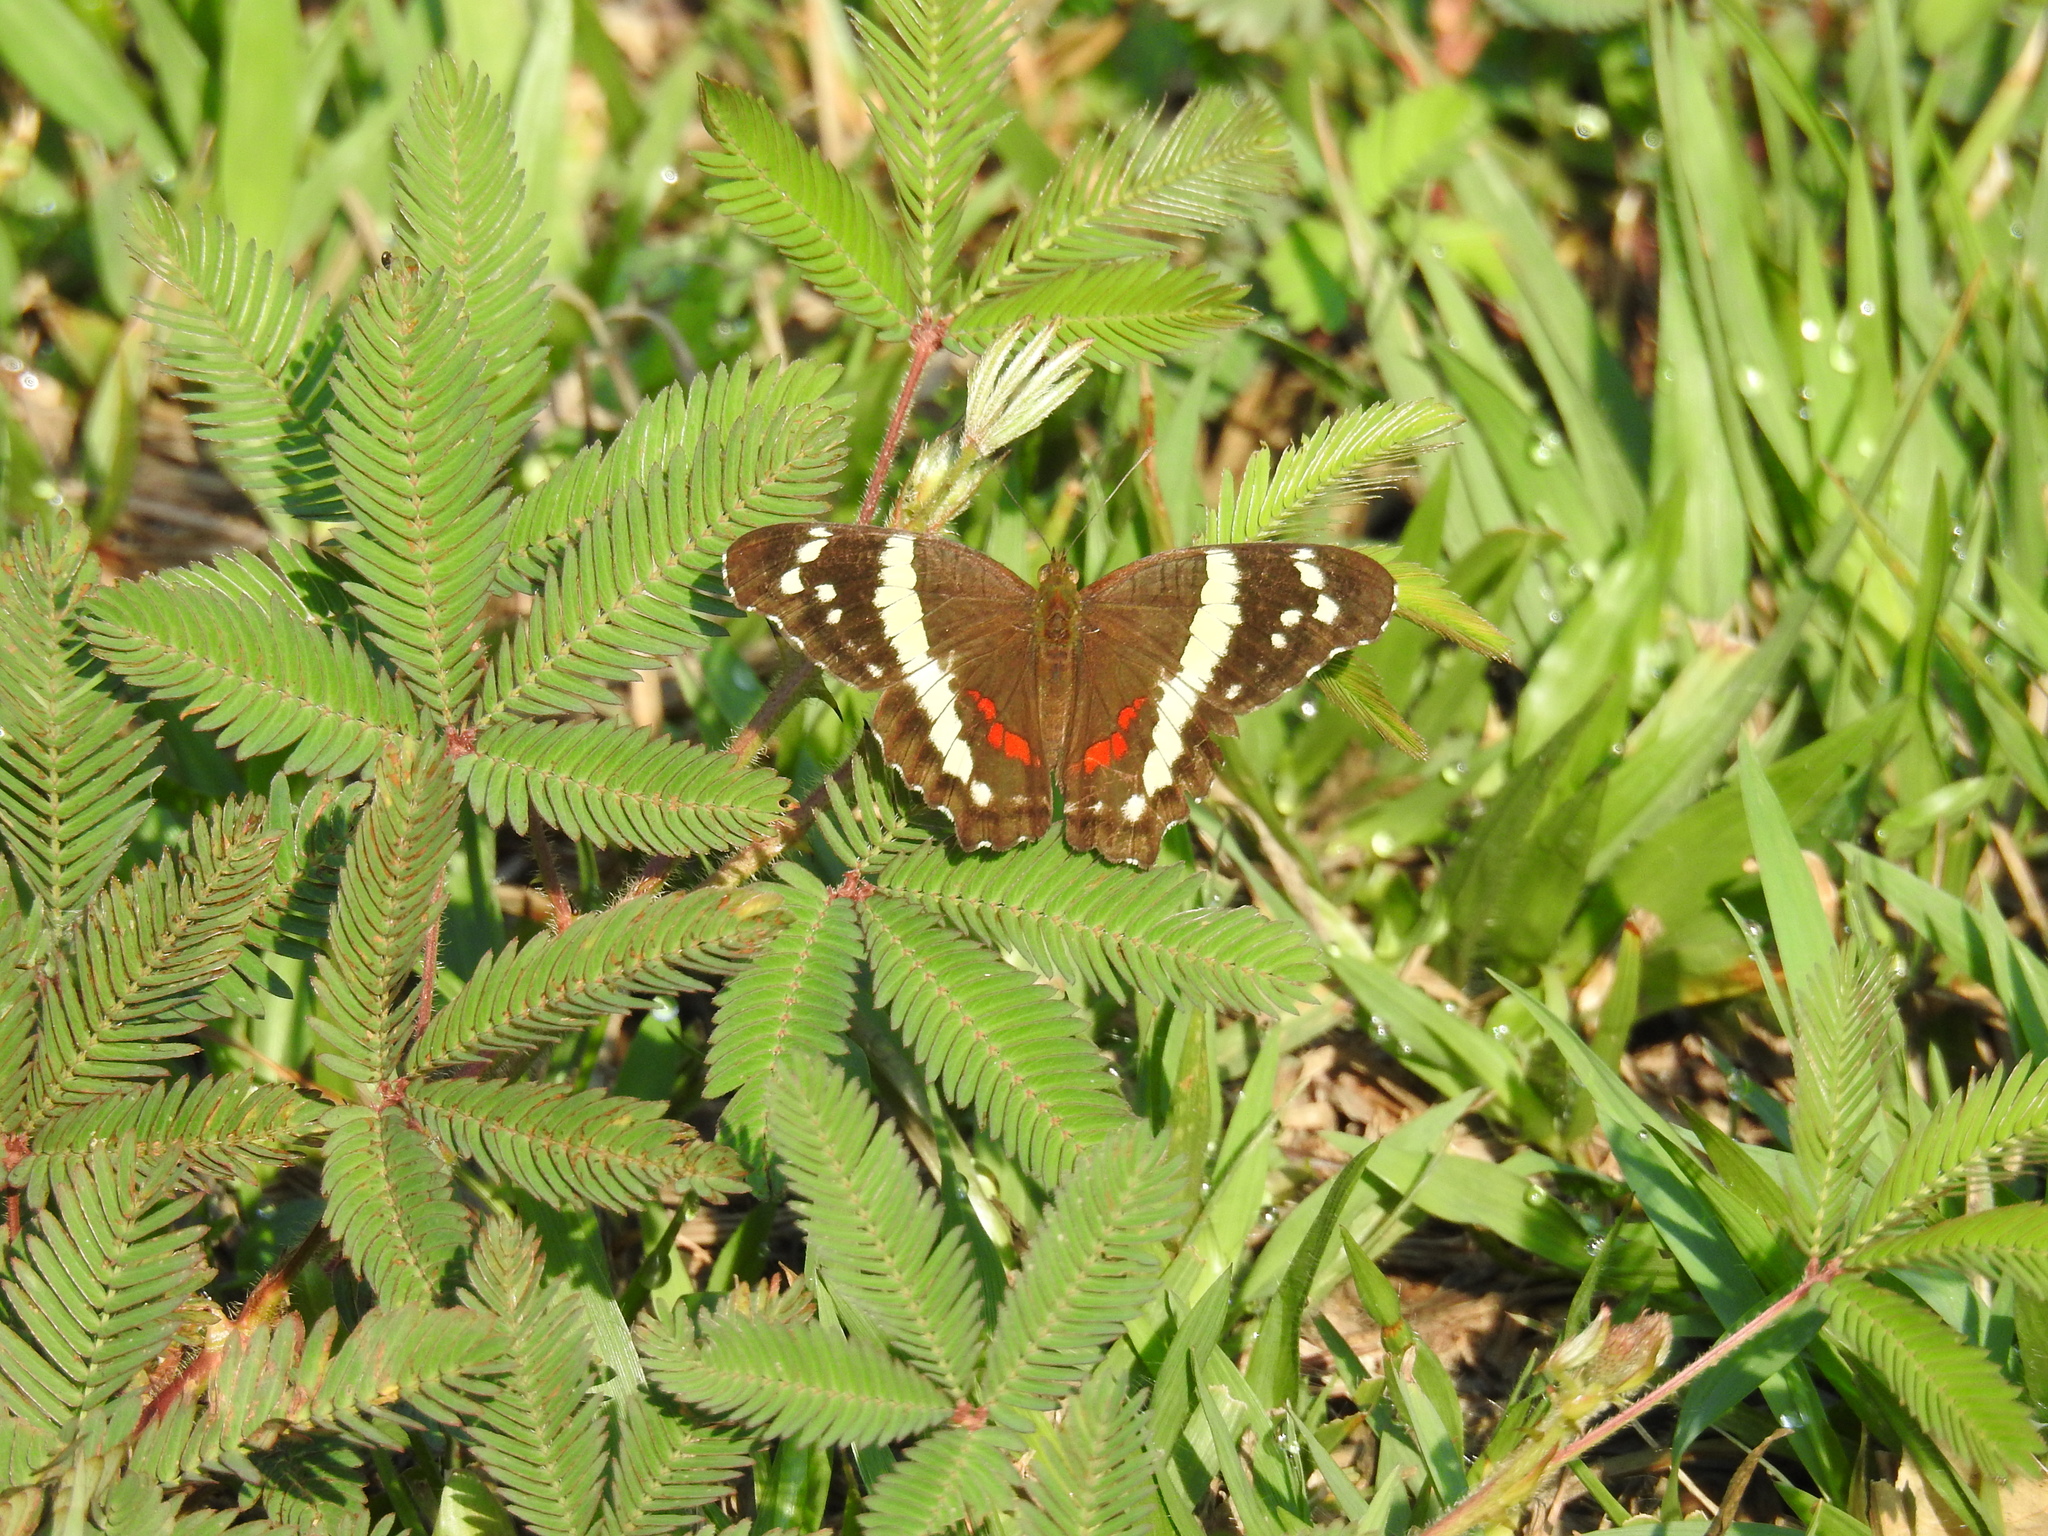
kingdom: Animalia
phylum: Arthropoda
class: Insecta
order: Lepidoptera
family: Nymphalidae
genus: Anartia
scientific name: Anartia fatima
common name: Banded peacock
